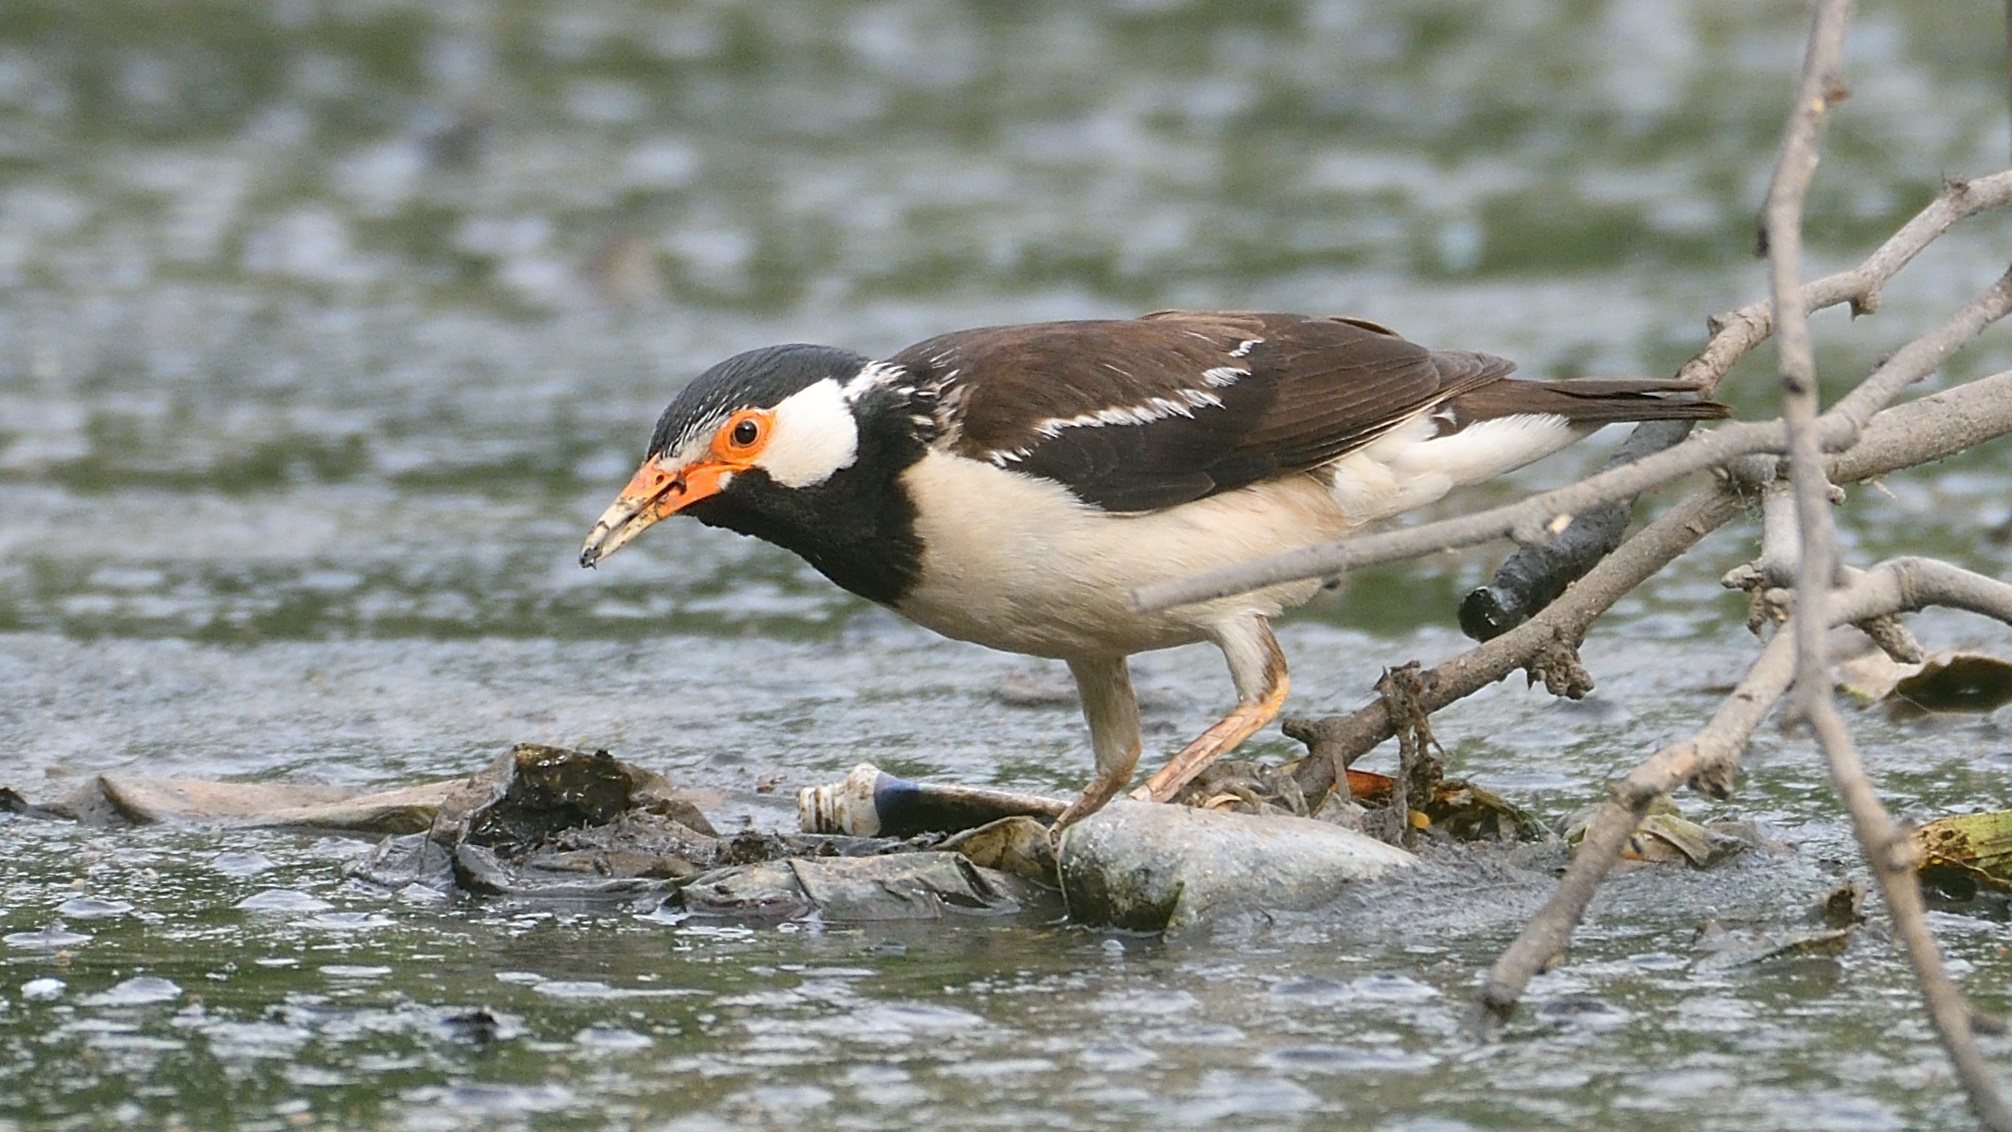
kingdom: Animalia
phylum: Chordata
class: Aves
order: Passeriformes
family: Sturnidae
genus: Gracupica
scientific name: Gracupica contra
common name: Pied myna
